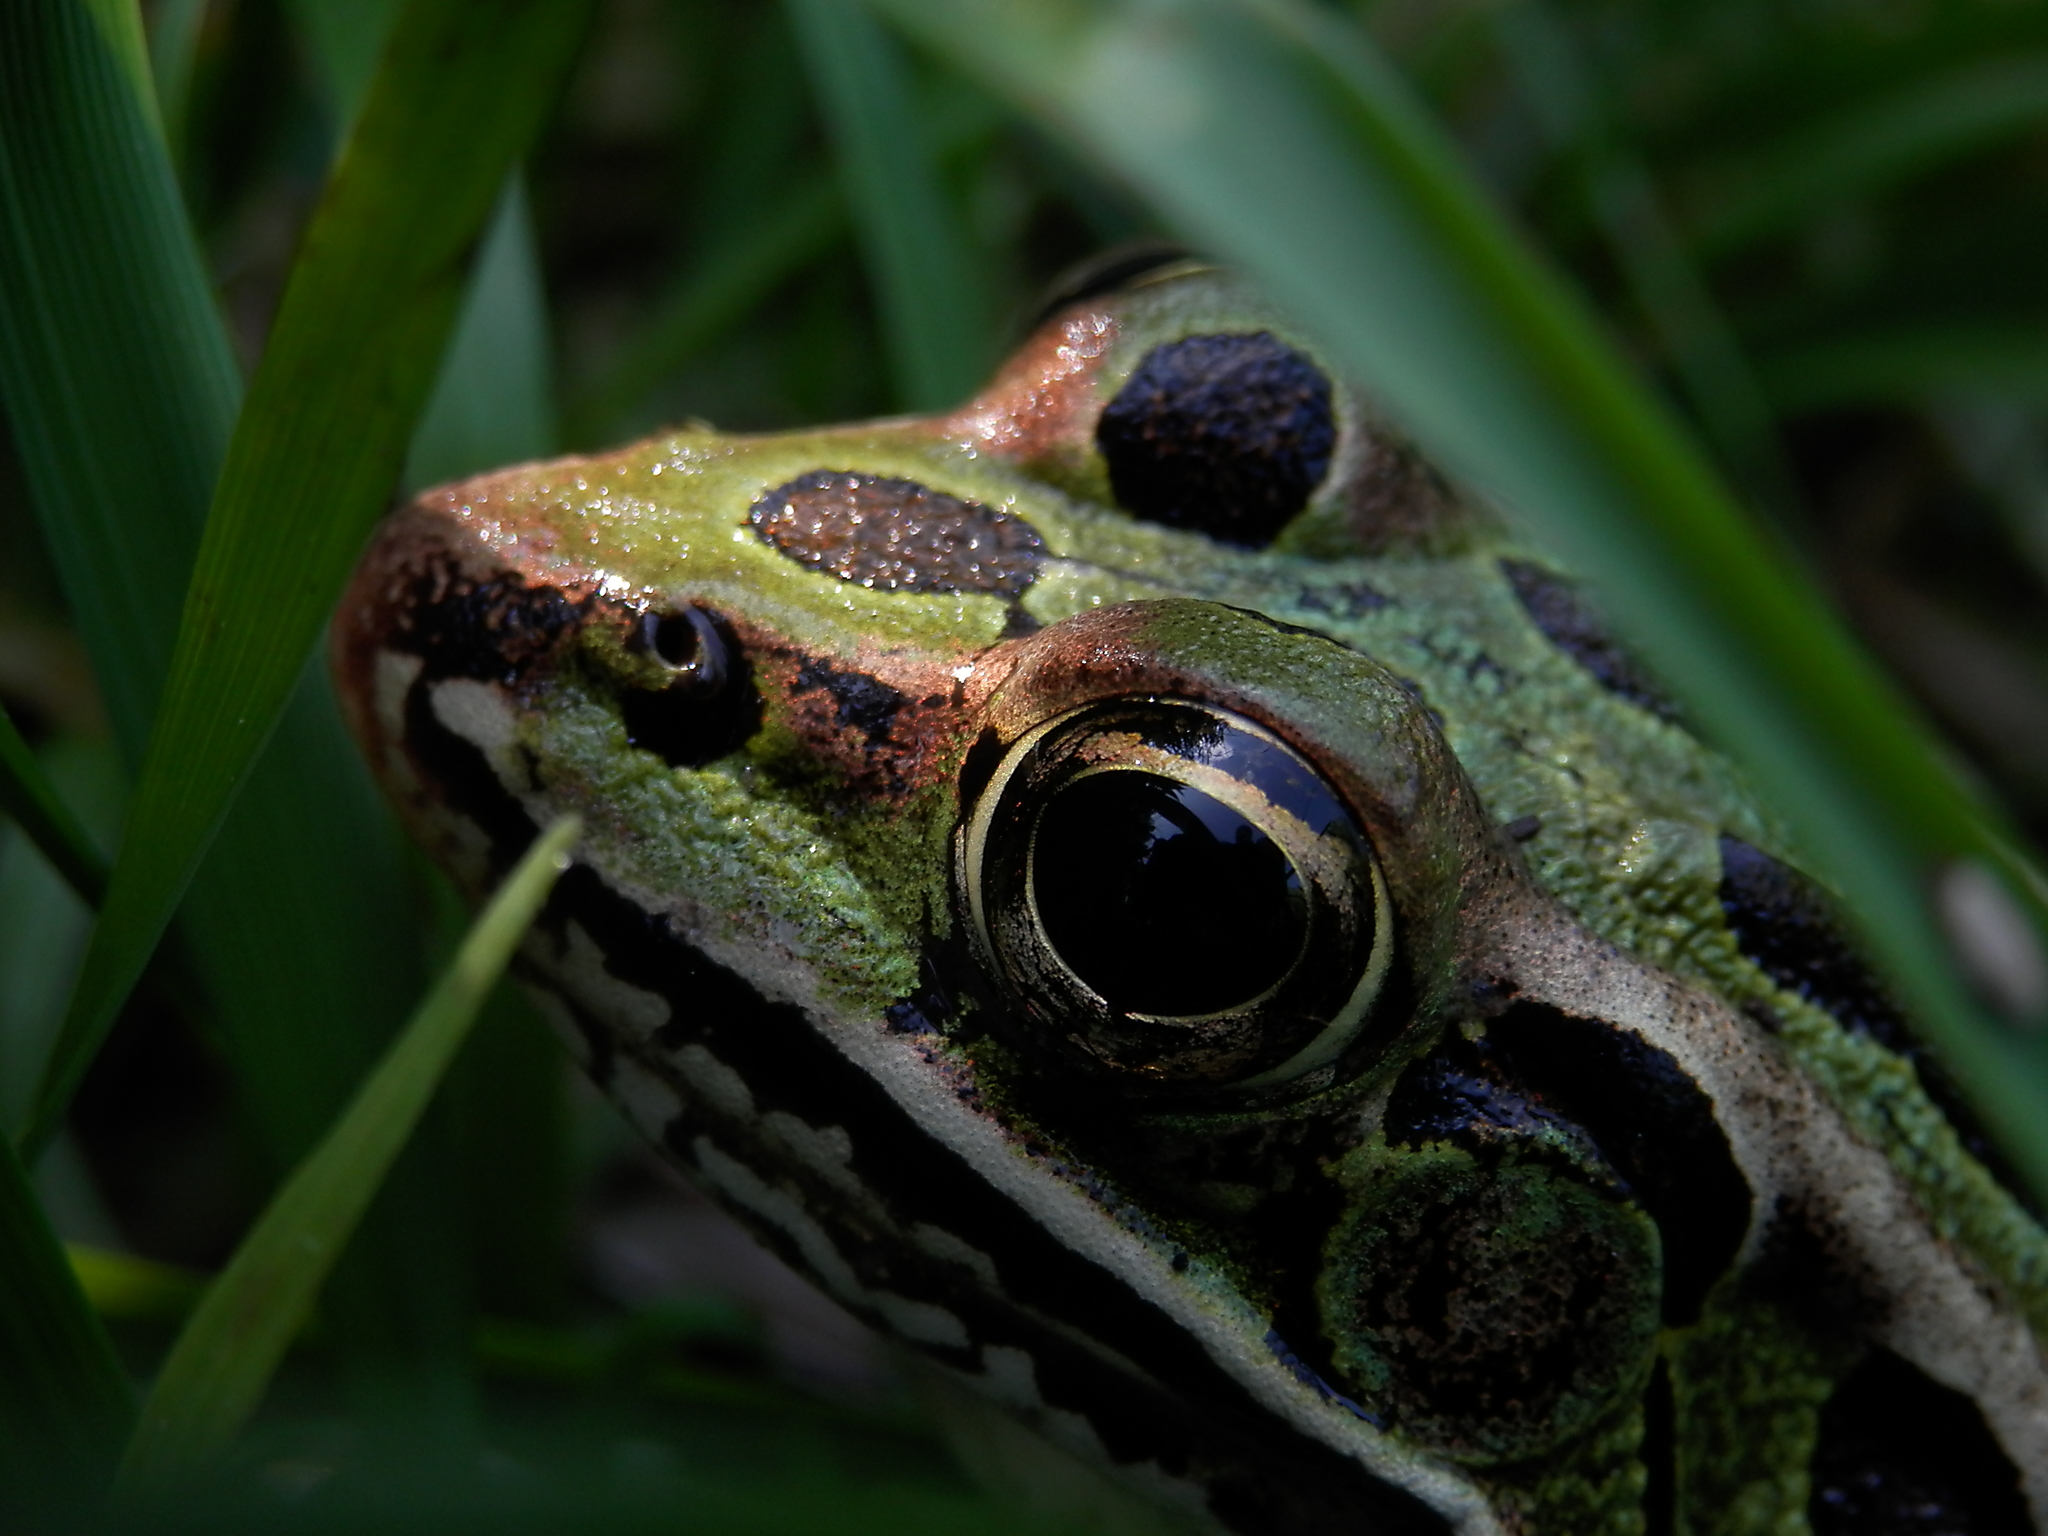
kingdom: Animalia
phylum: Chordata
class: Amphibia
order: Anura
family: Ranidae
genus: Lithobates
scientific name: Lithobates pipiens
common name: Northern leopard frog
